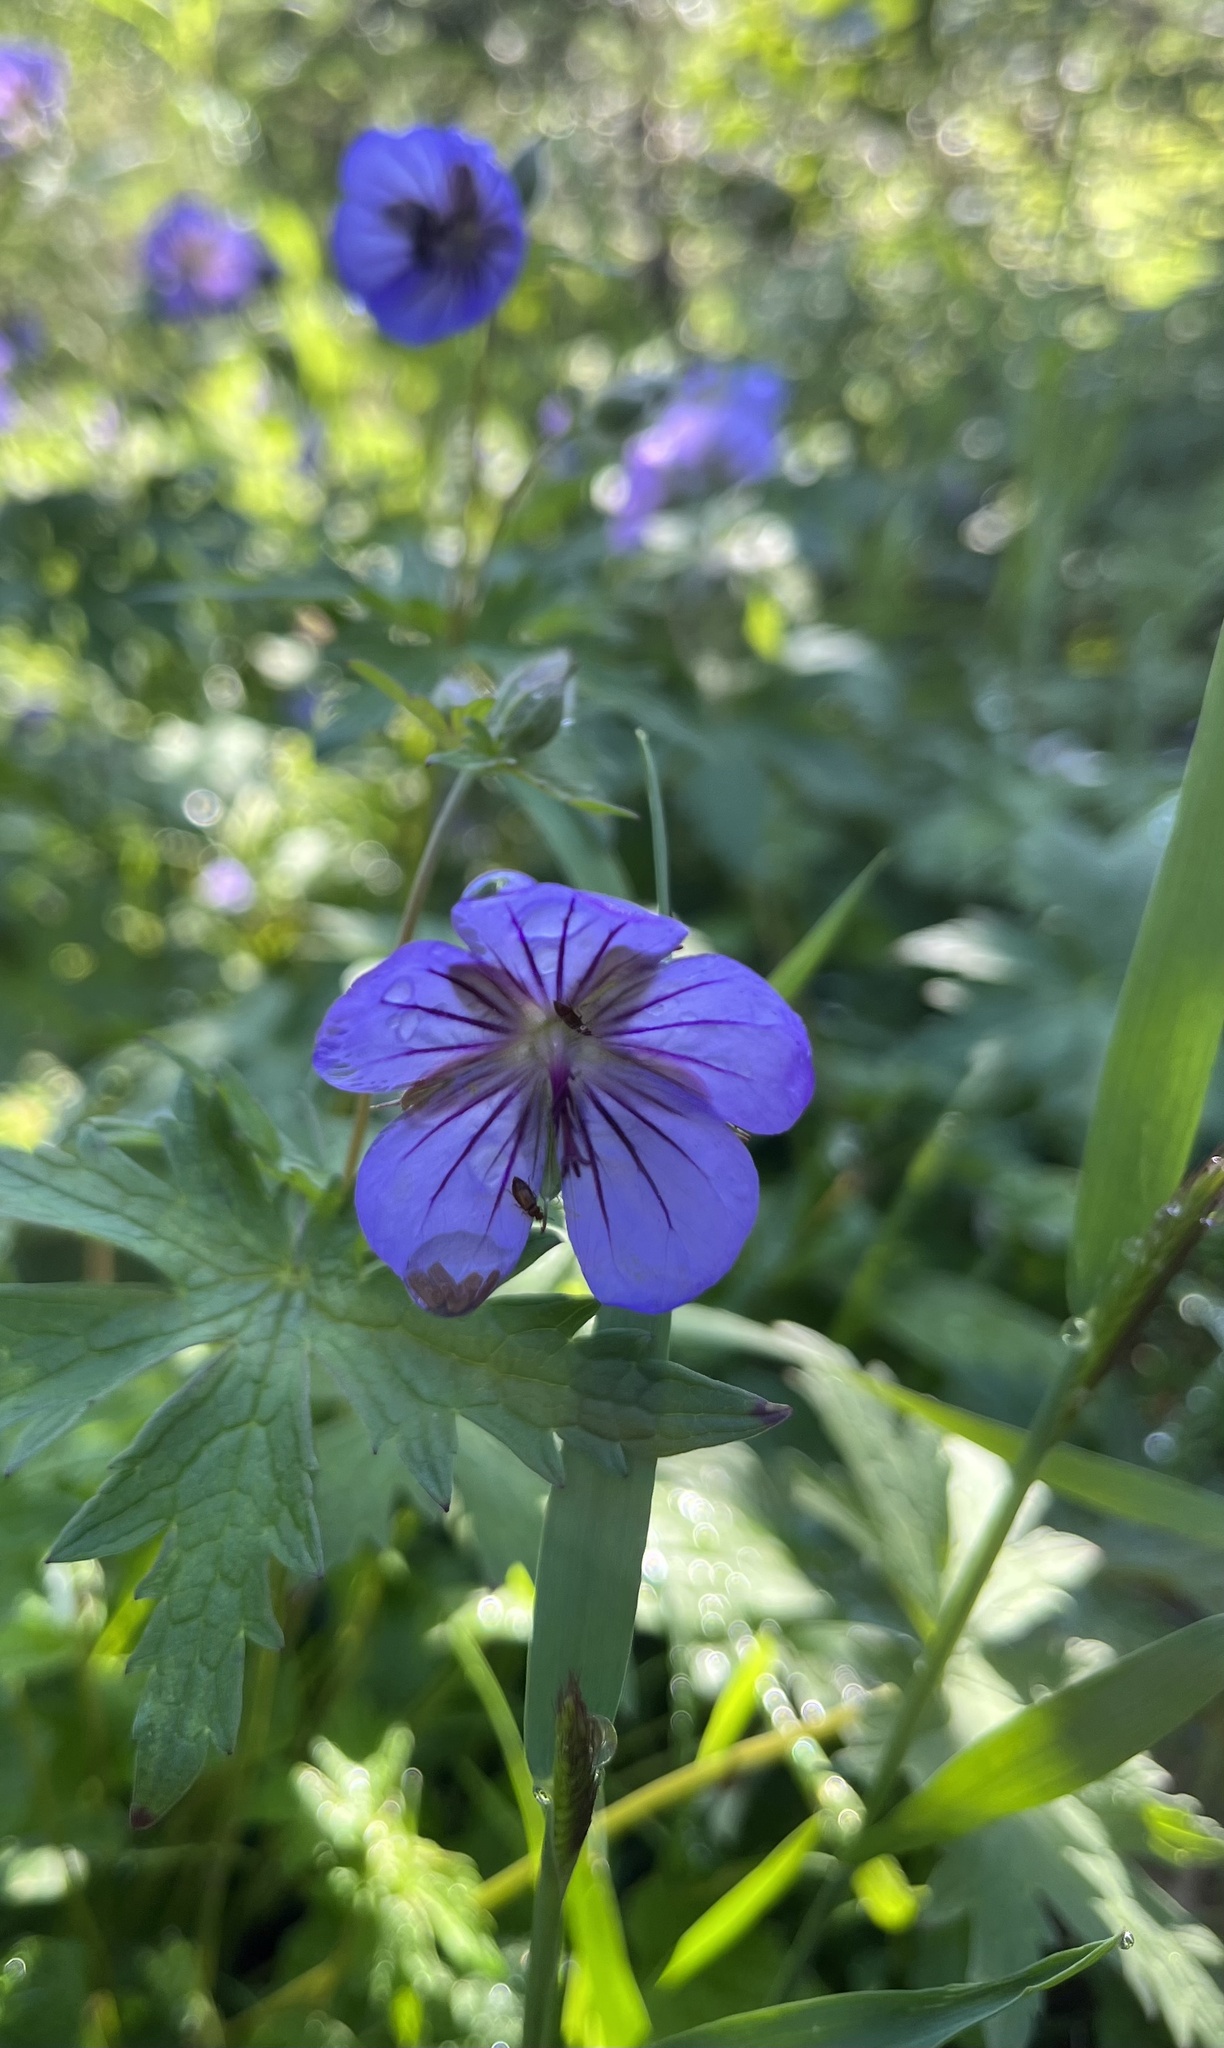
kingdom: Plantae
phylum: Tracheophyta
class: Magnoliopsida
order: Geraniales
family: Geraniaceae
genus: Geranium
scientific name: Geranium erianthum
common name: Northern crane's-bill
